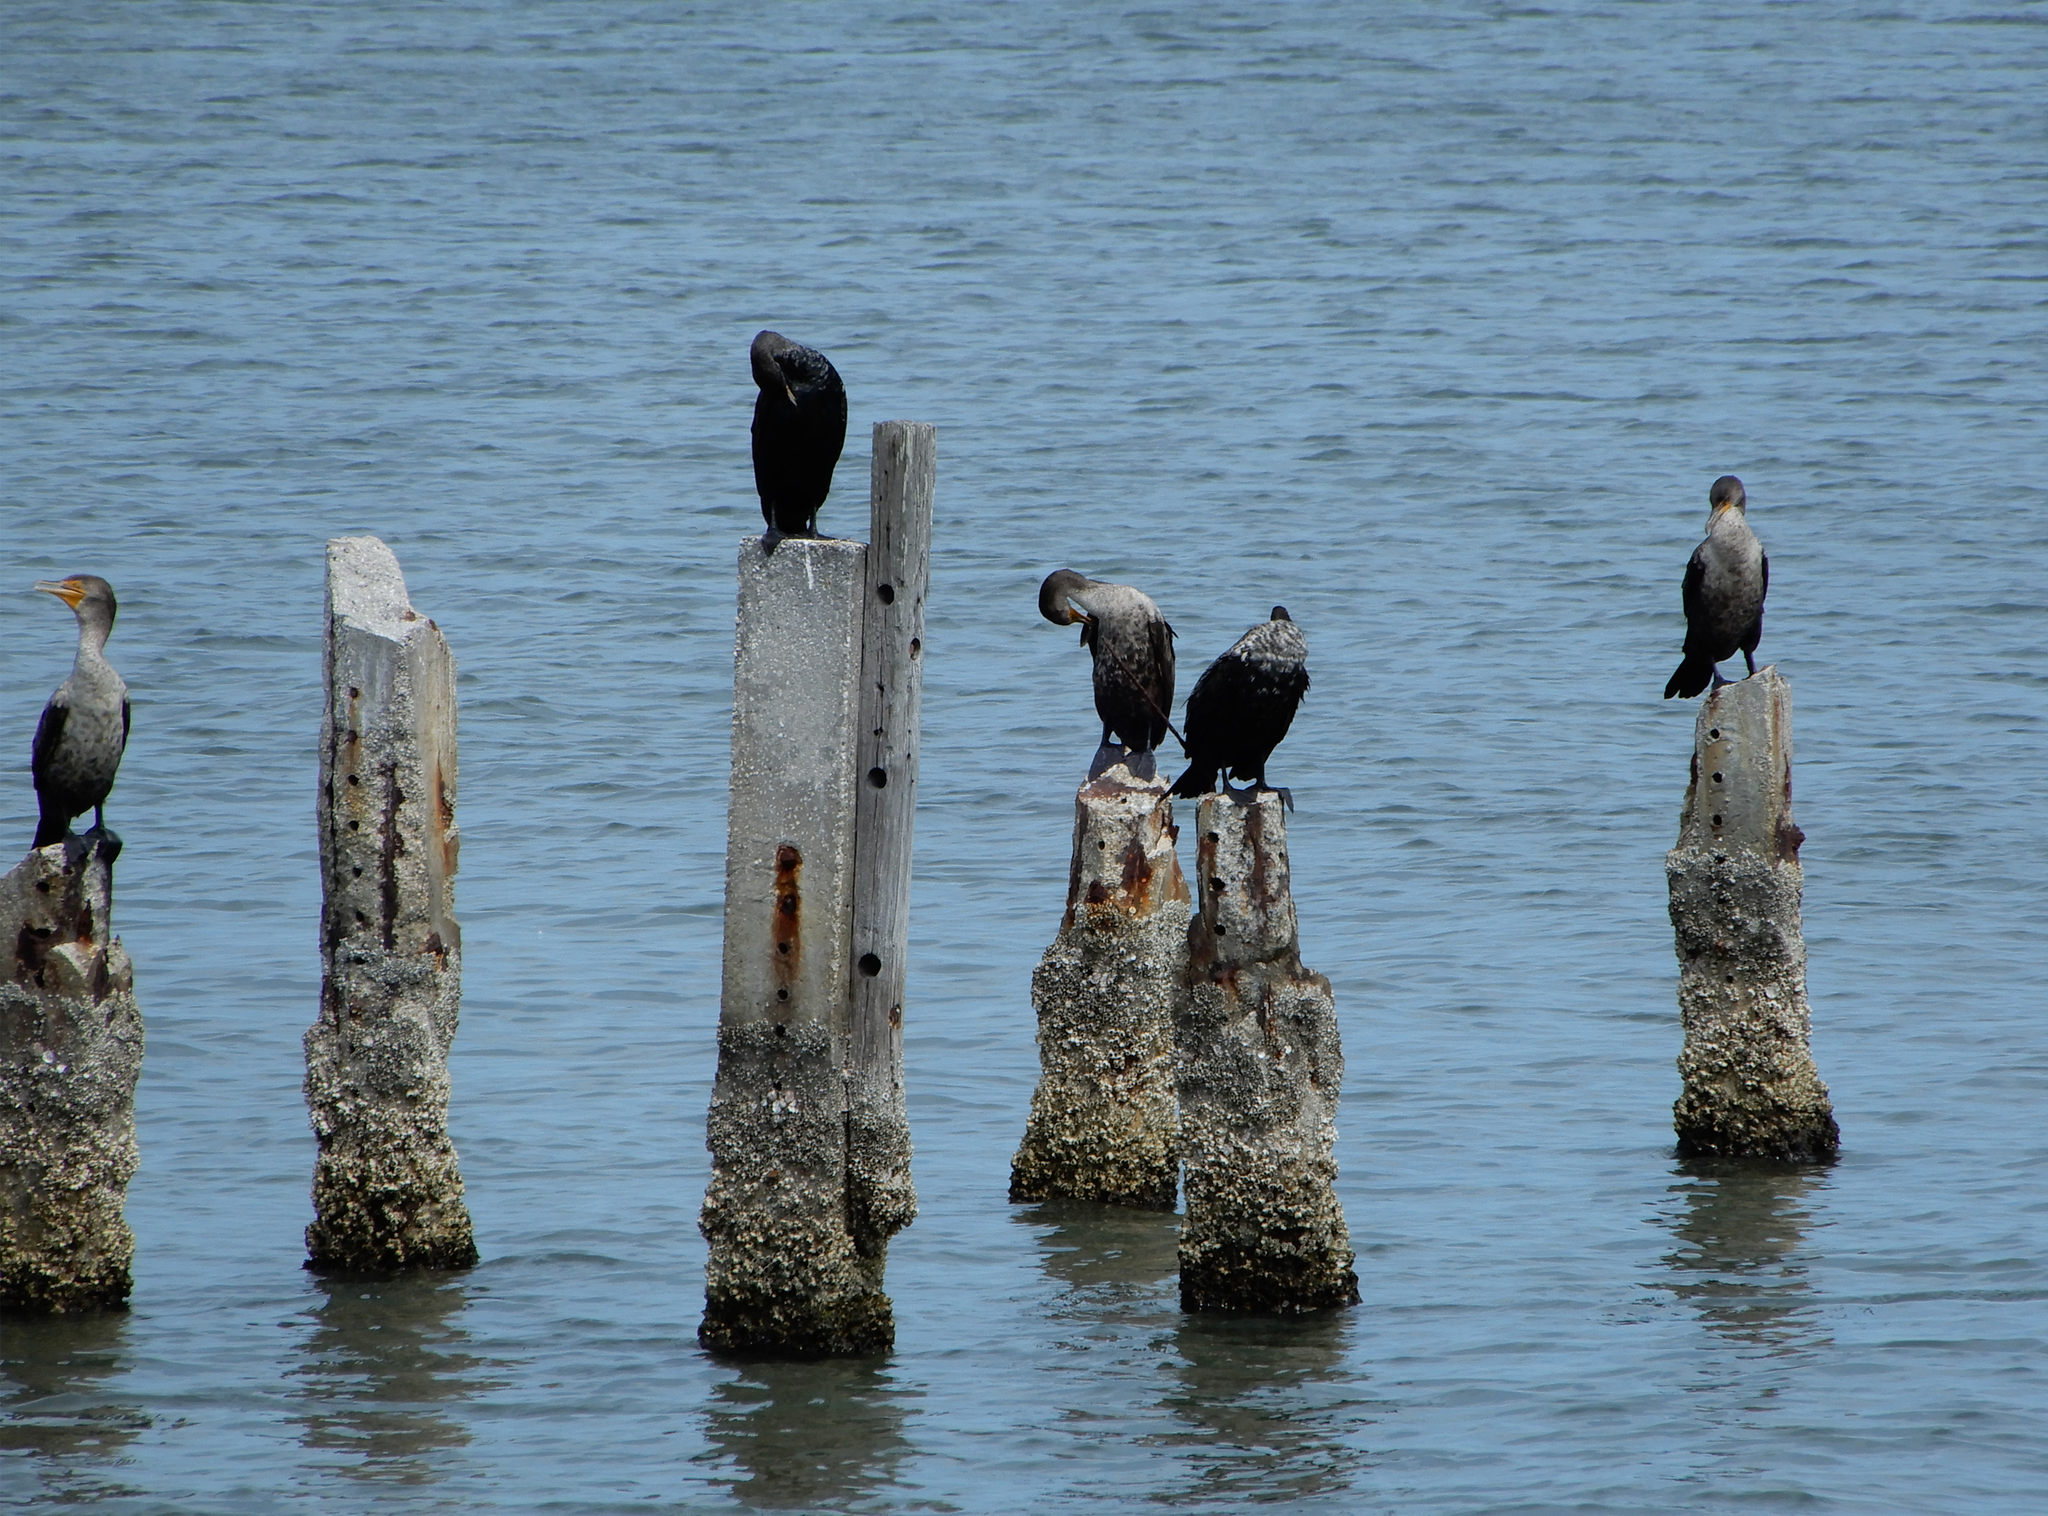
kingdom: Animalia
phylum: Chordata
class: Aves
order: Suliformes
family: Phalacrocoracidae
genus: Phalacrocorax
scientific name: Phalacrocorax auritus
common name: Double-crested cormorant
